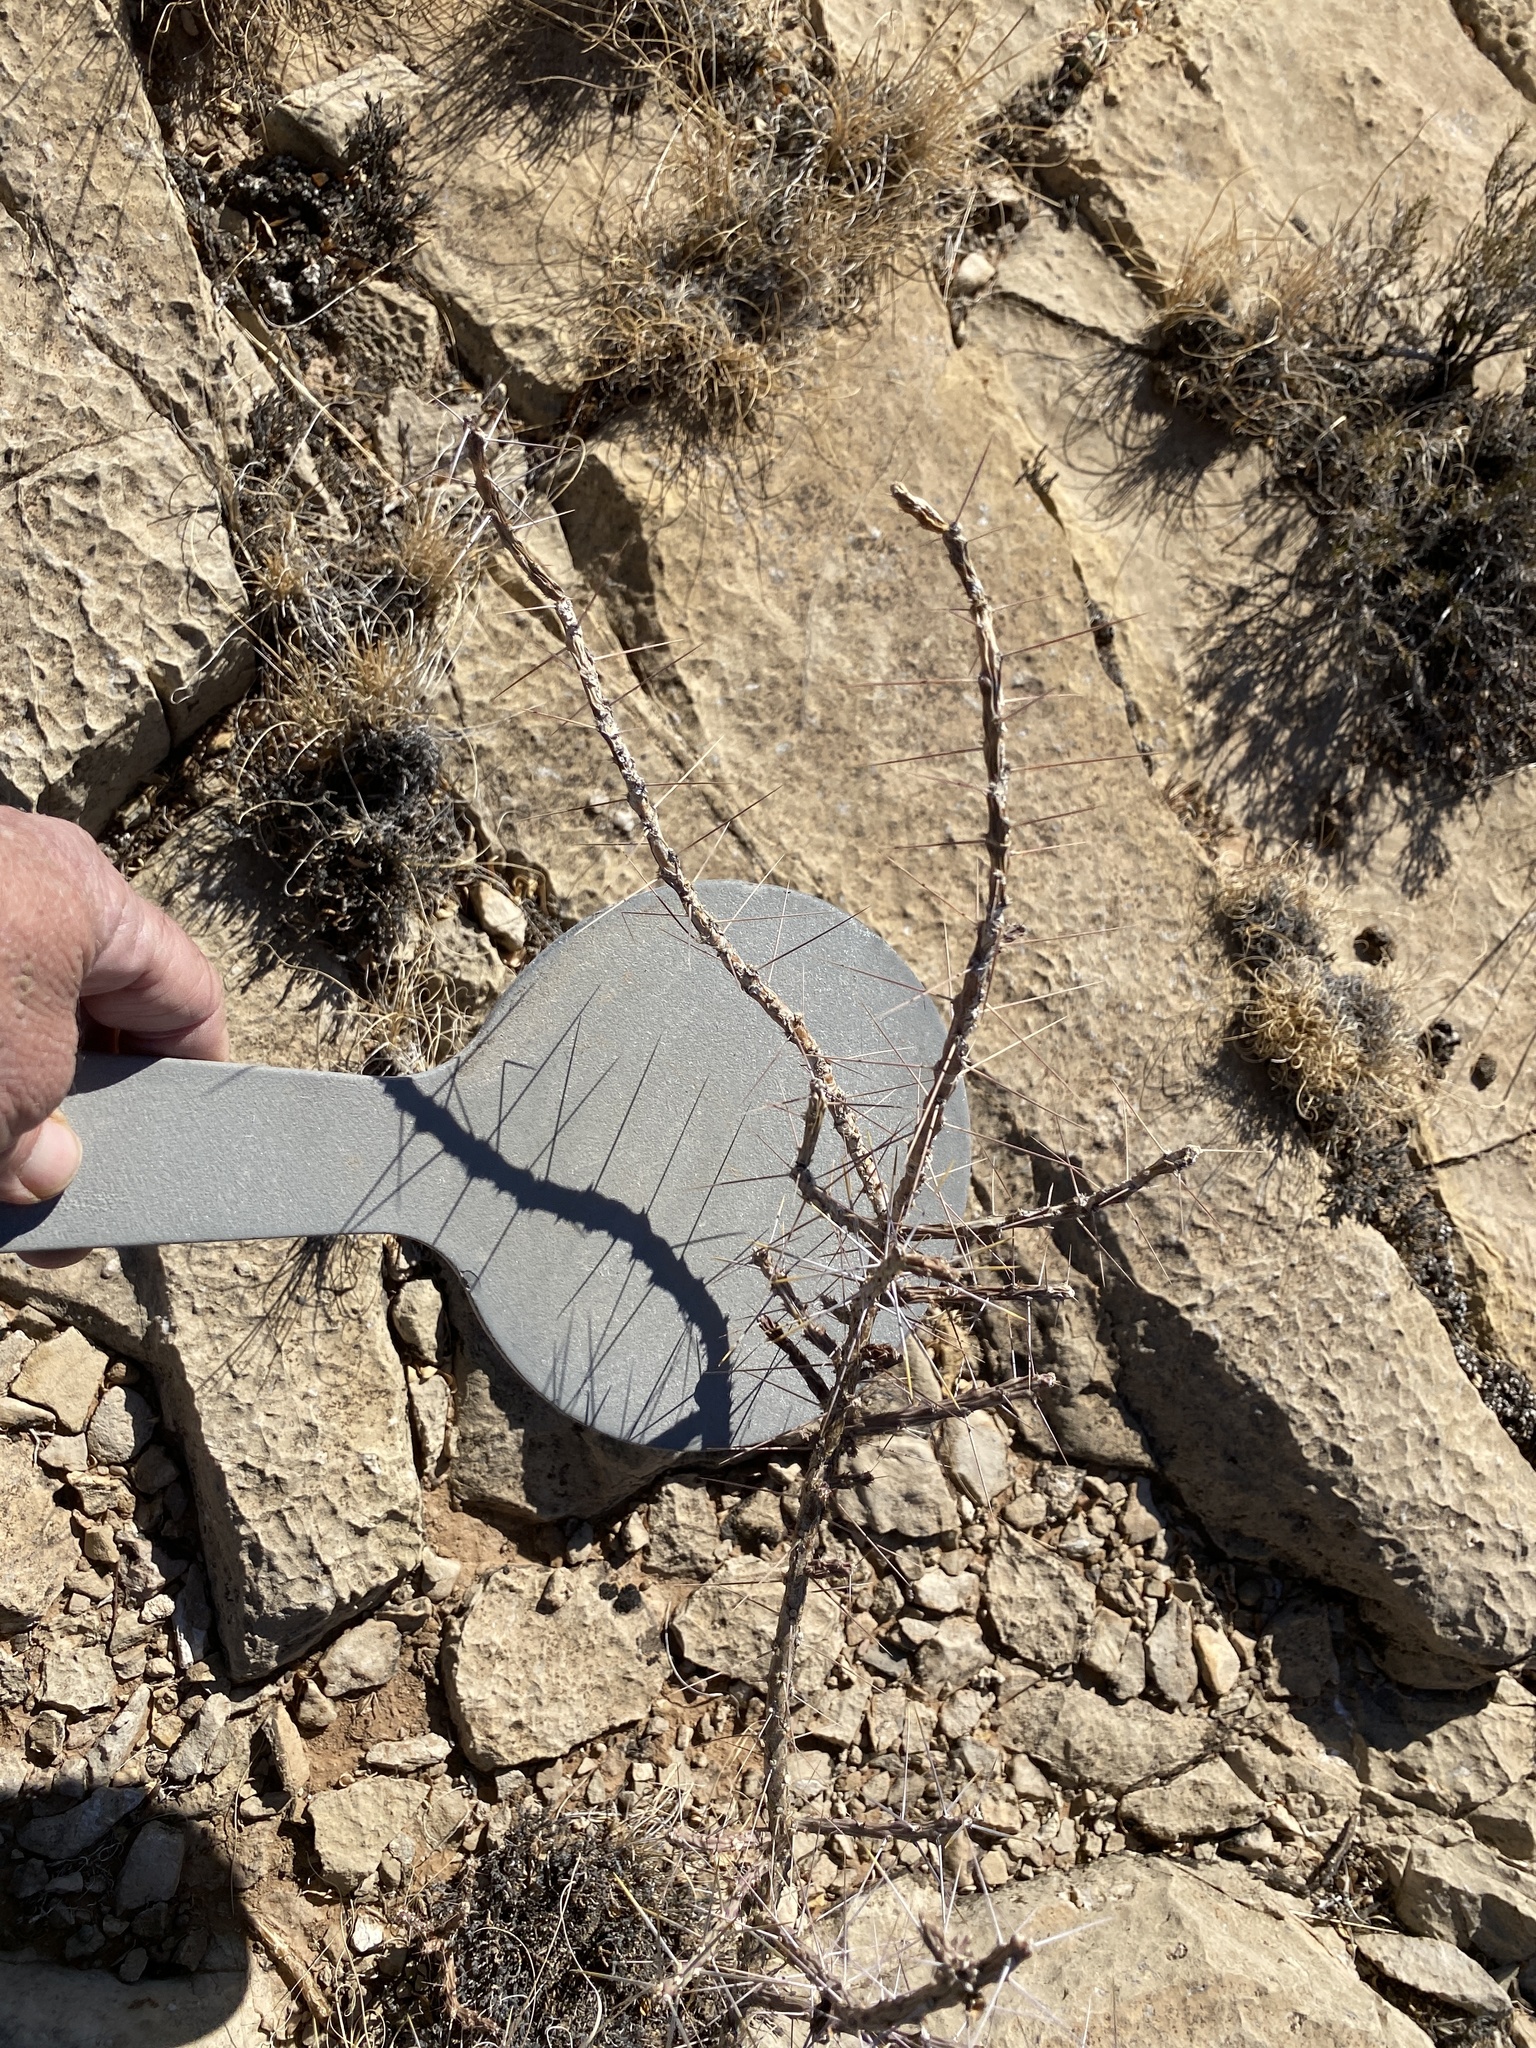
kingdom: Plantae
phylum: Tracheophyta
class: Magnoliopsida
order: Caryophyllales
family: Cactaceae
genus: Cylindropuntia
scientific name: Cylindropuntia leptocaulis
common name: Christmas cactus
